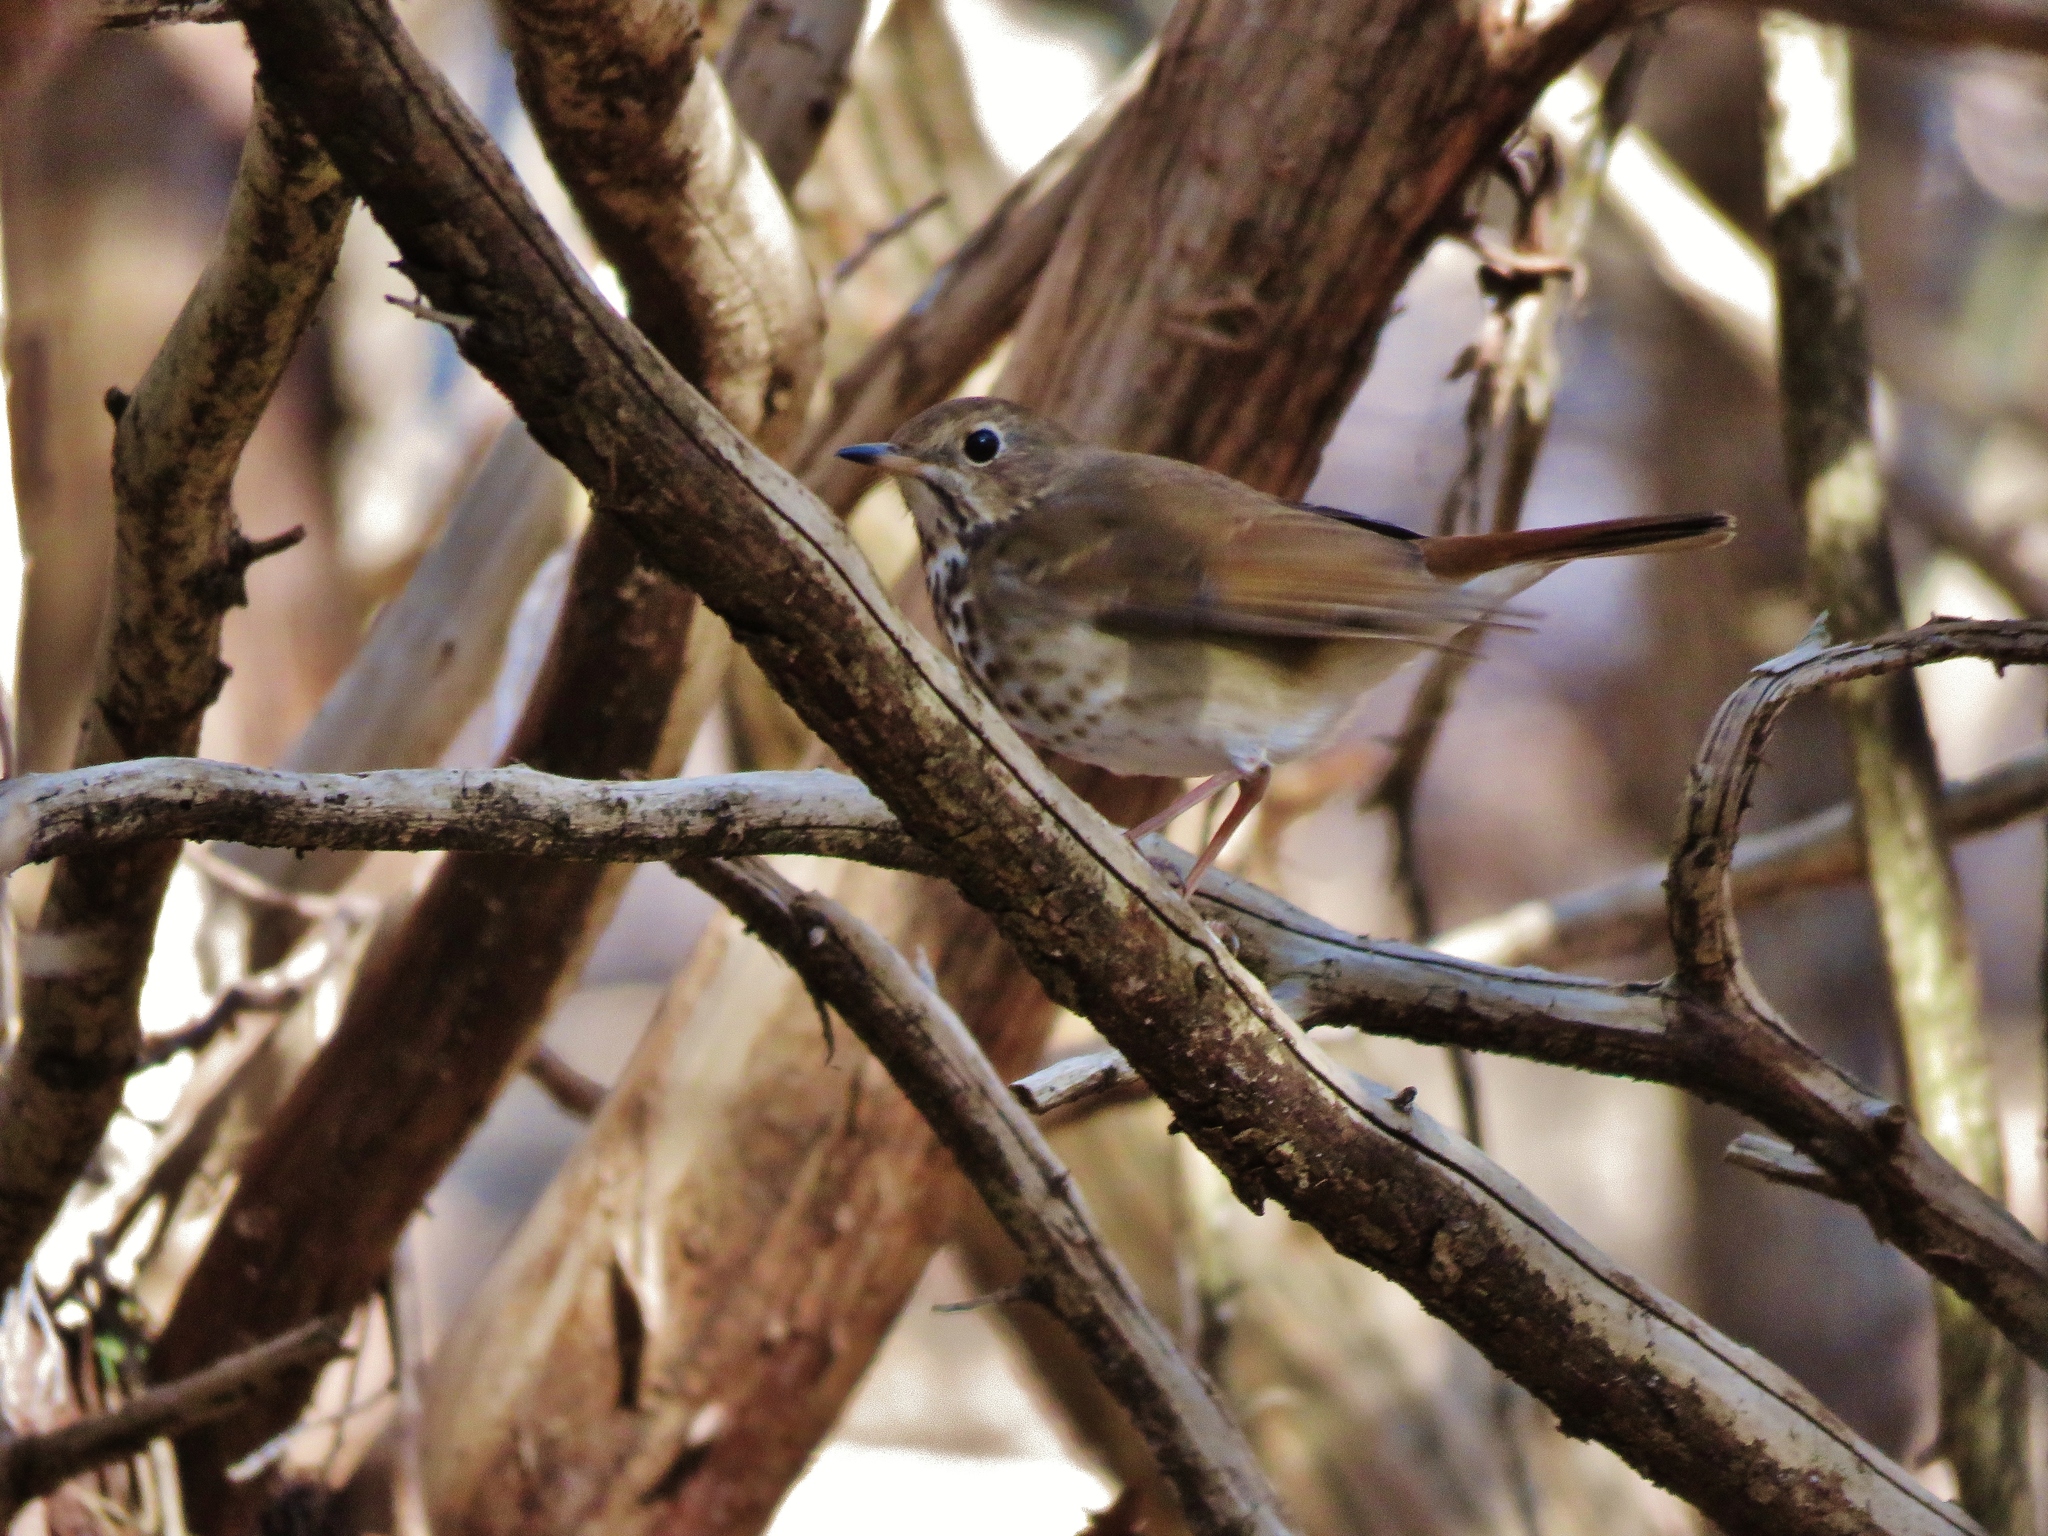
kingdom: Animalia
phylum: Chordata
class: Aves
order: Passeriformes
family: Turdidae
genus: Catharus
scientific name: Catharus guttatus
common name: Hermit thrush
